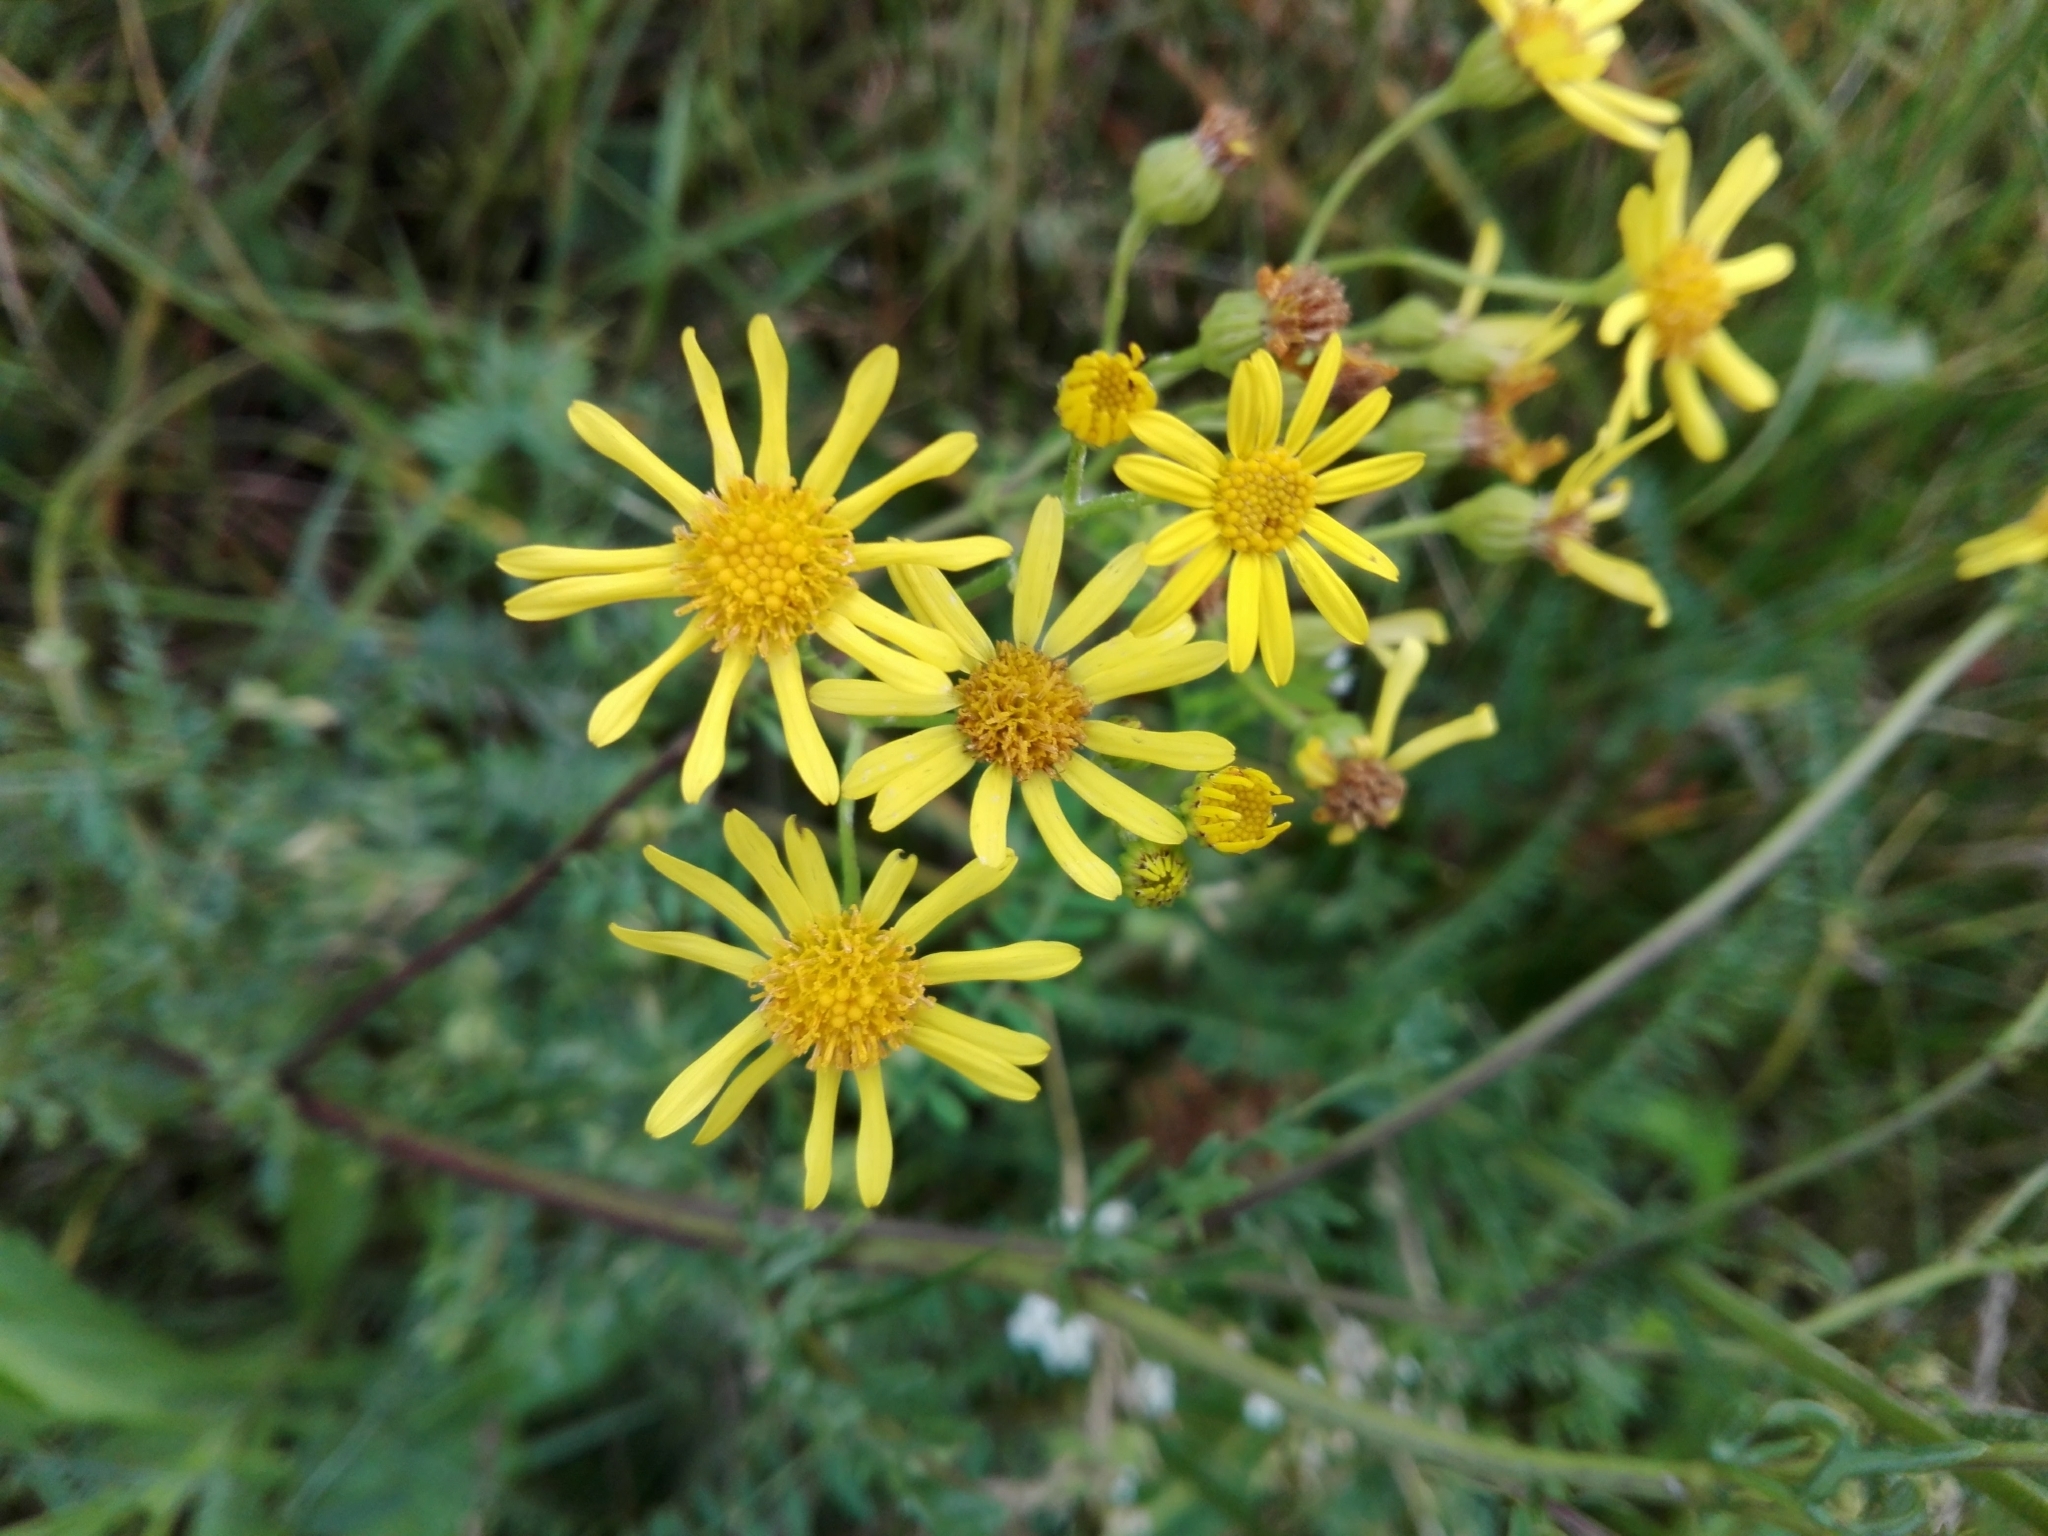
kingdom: Plantae
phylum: Tracheophyta
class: Magnoliopsida
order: Asterales
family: Asteraceae
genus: Jacobaea
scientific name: Jacobaea vulgaris
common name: Stinking willie
